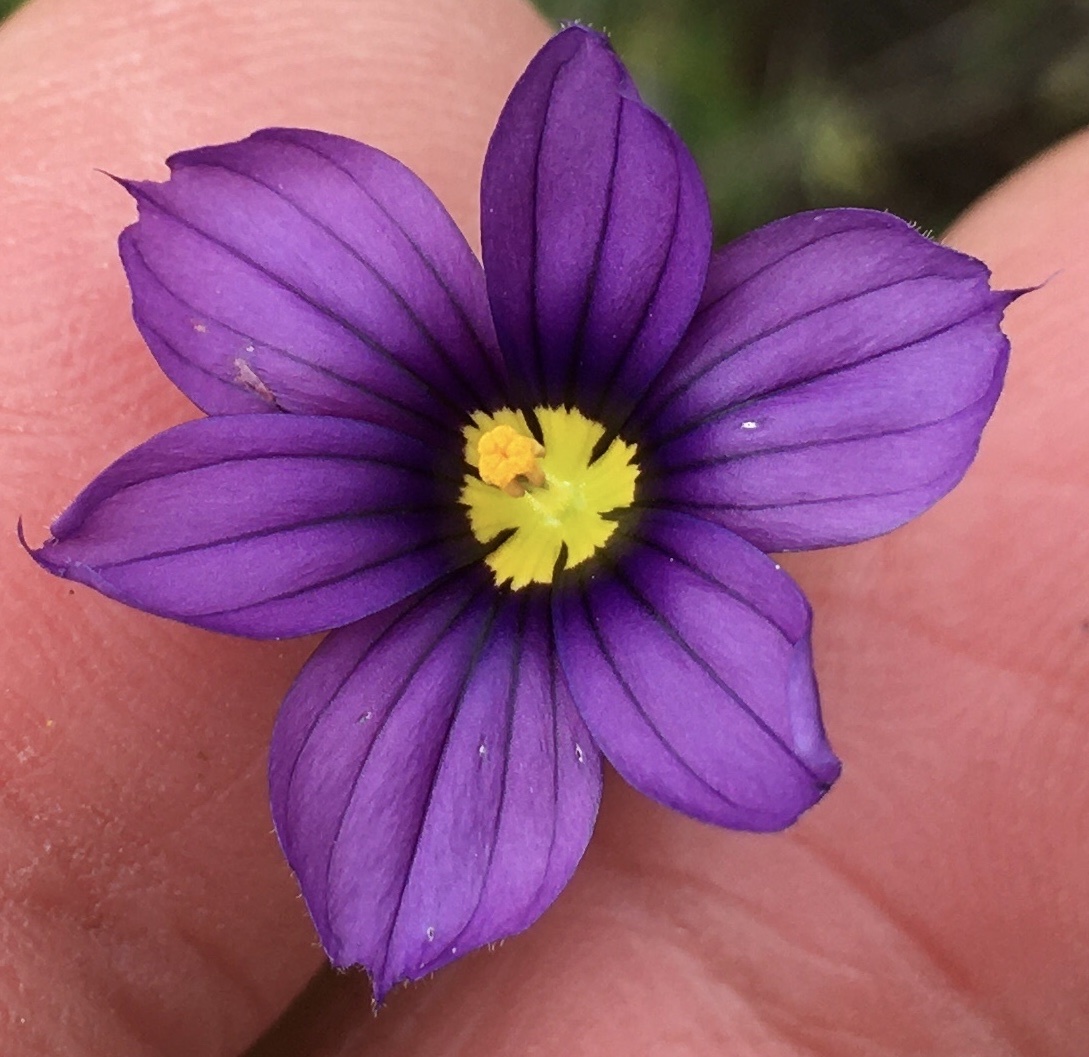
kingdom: Plantae
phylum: Tracheophyta
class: Liliopsida
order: Asparagales
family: Iridaceae
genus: Sisyrinchium
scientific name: Sisyrinchium bellum
